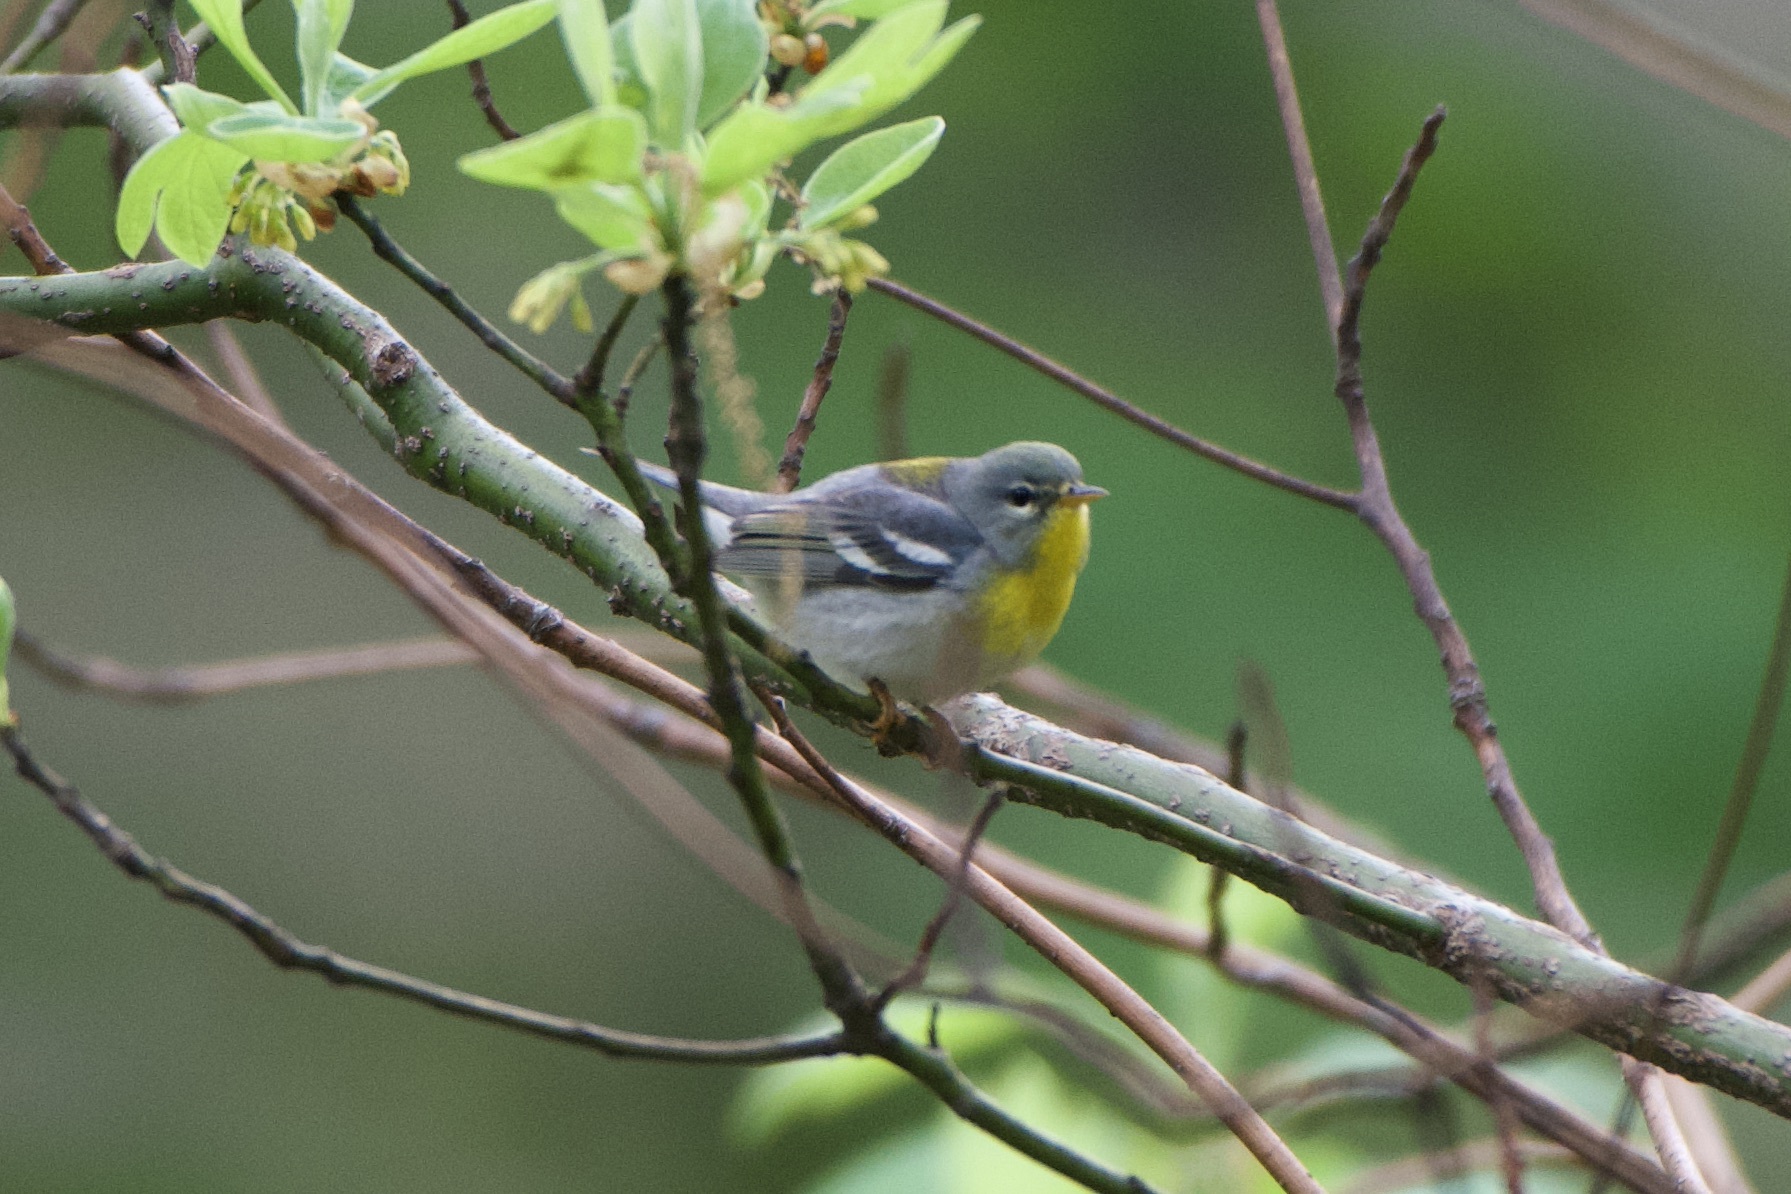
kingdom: Animalia
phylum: Chordata
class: Aves
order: Passeriformes
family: Parulidae
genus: Setophaga
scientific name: Setophaga americana
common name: Northern parula
